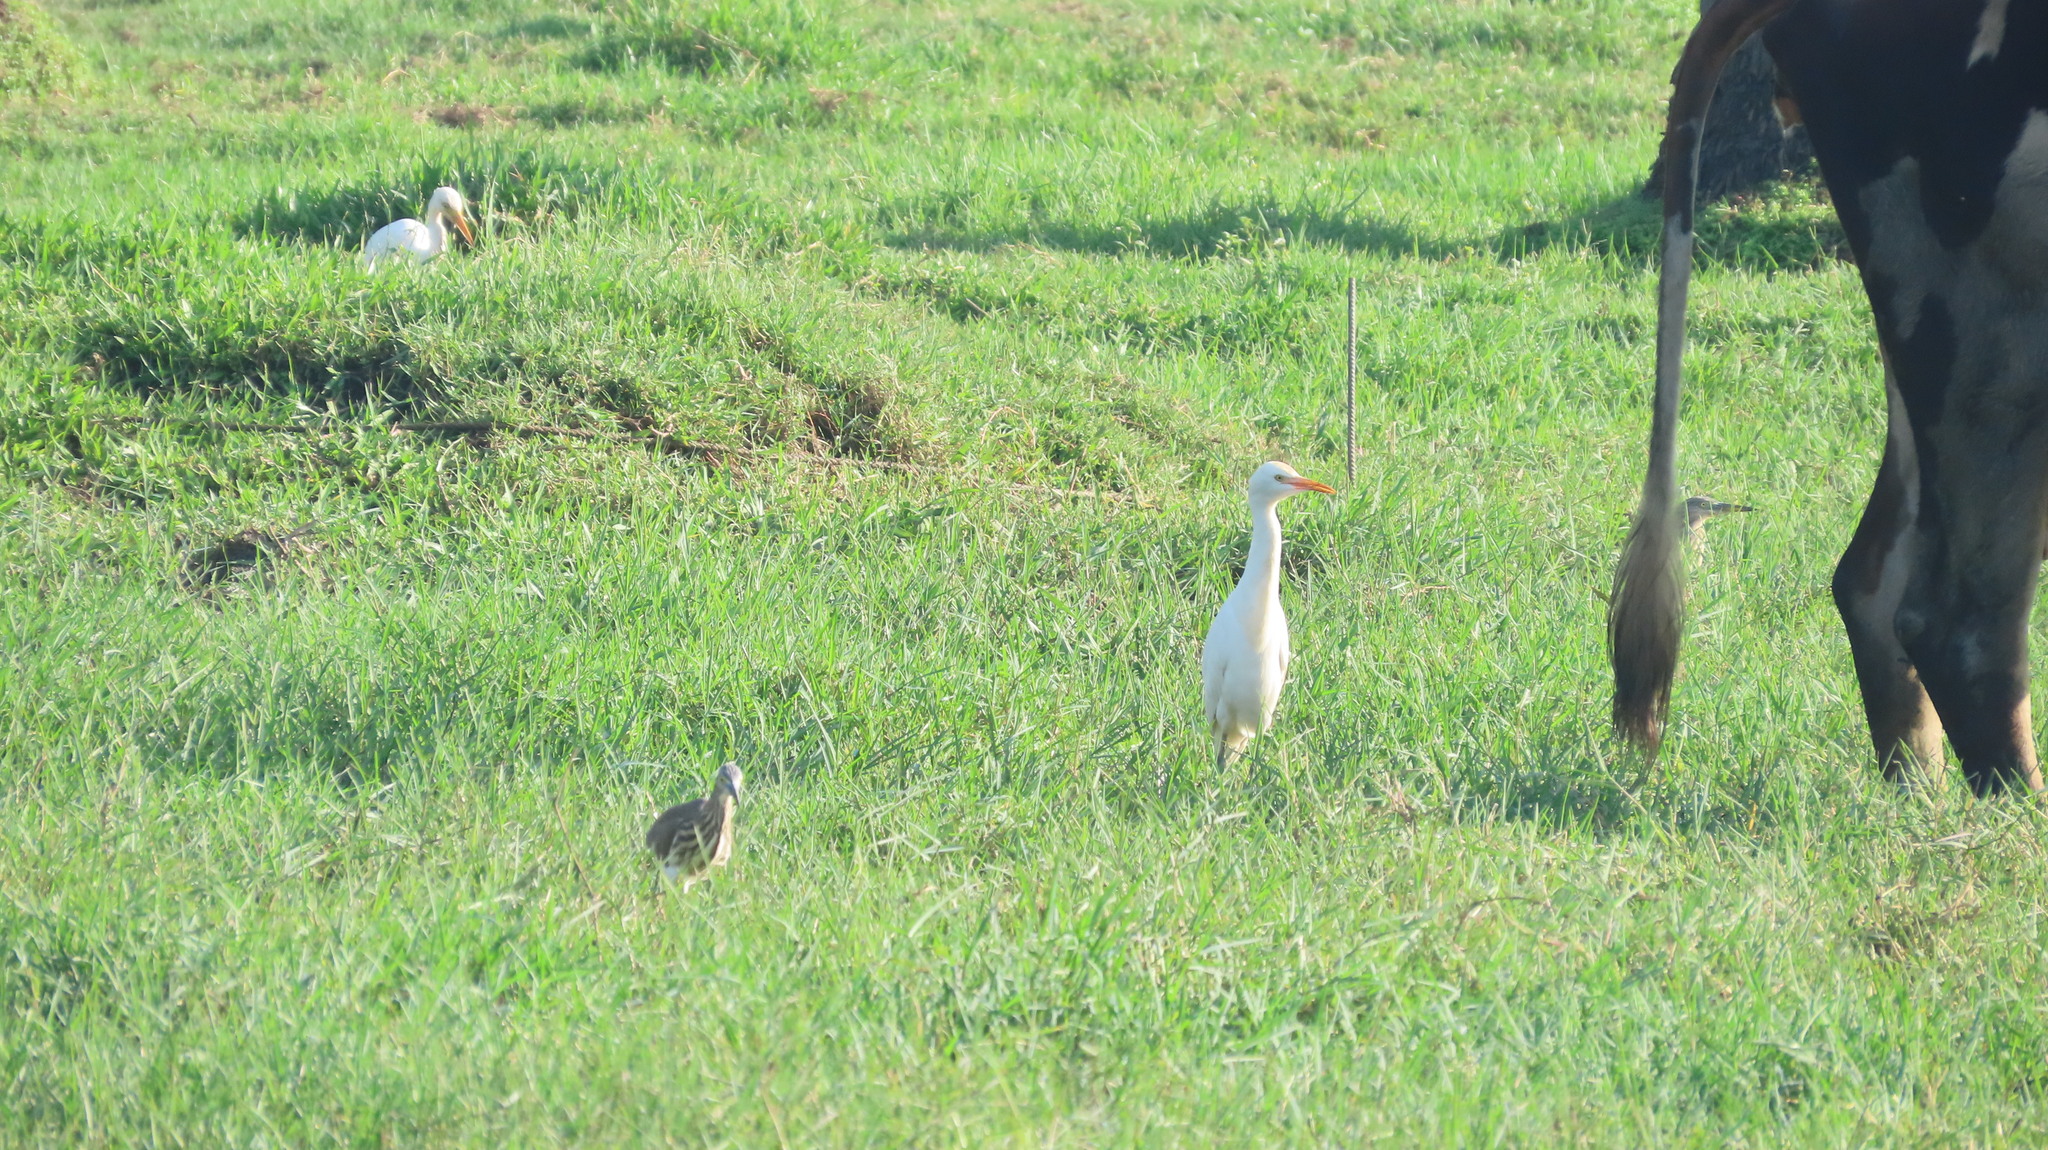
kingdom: Animalia
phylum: Chordata
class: Aves
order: Pelecaniformes
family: Ardeidae
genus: Bubulcus
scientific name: Bubulcus coromandus
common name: Eastern cattle egret
